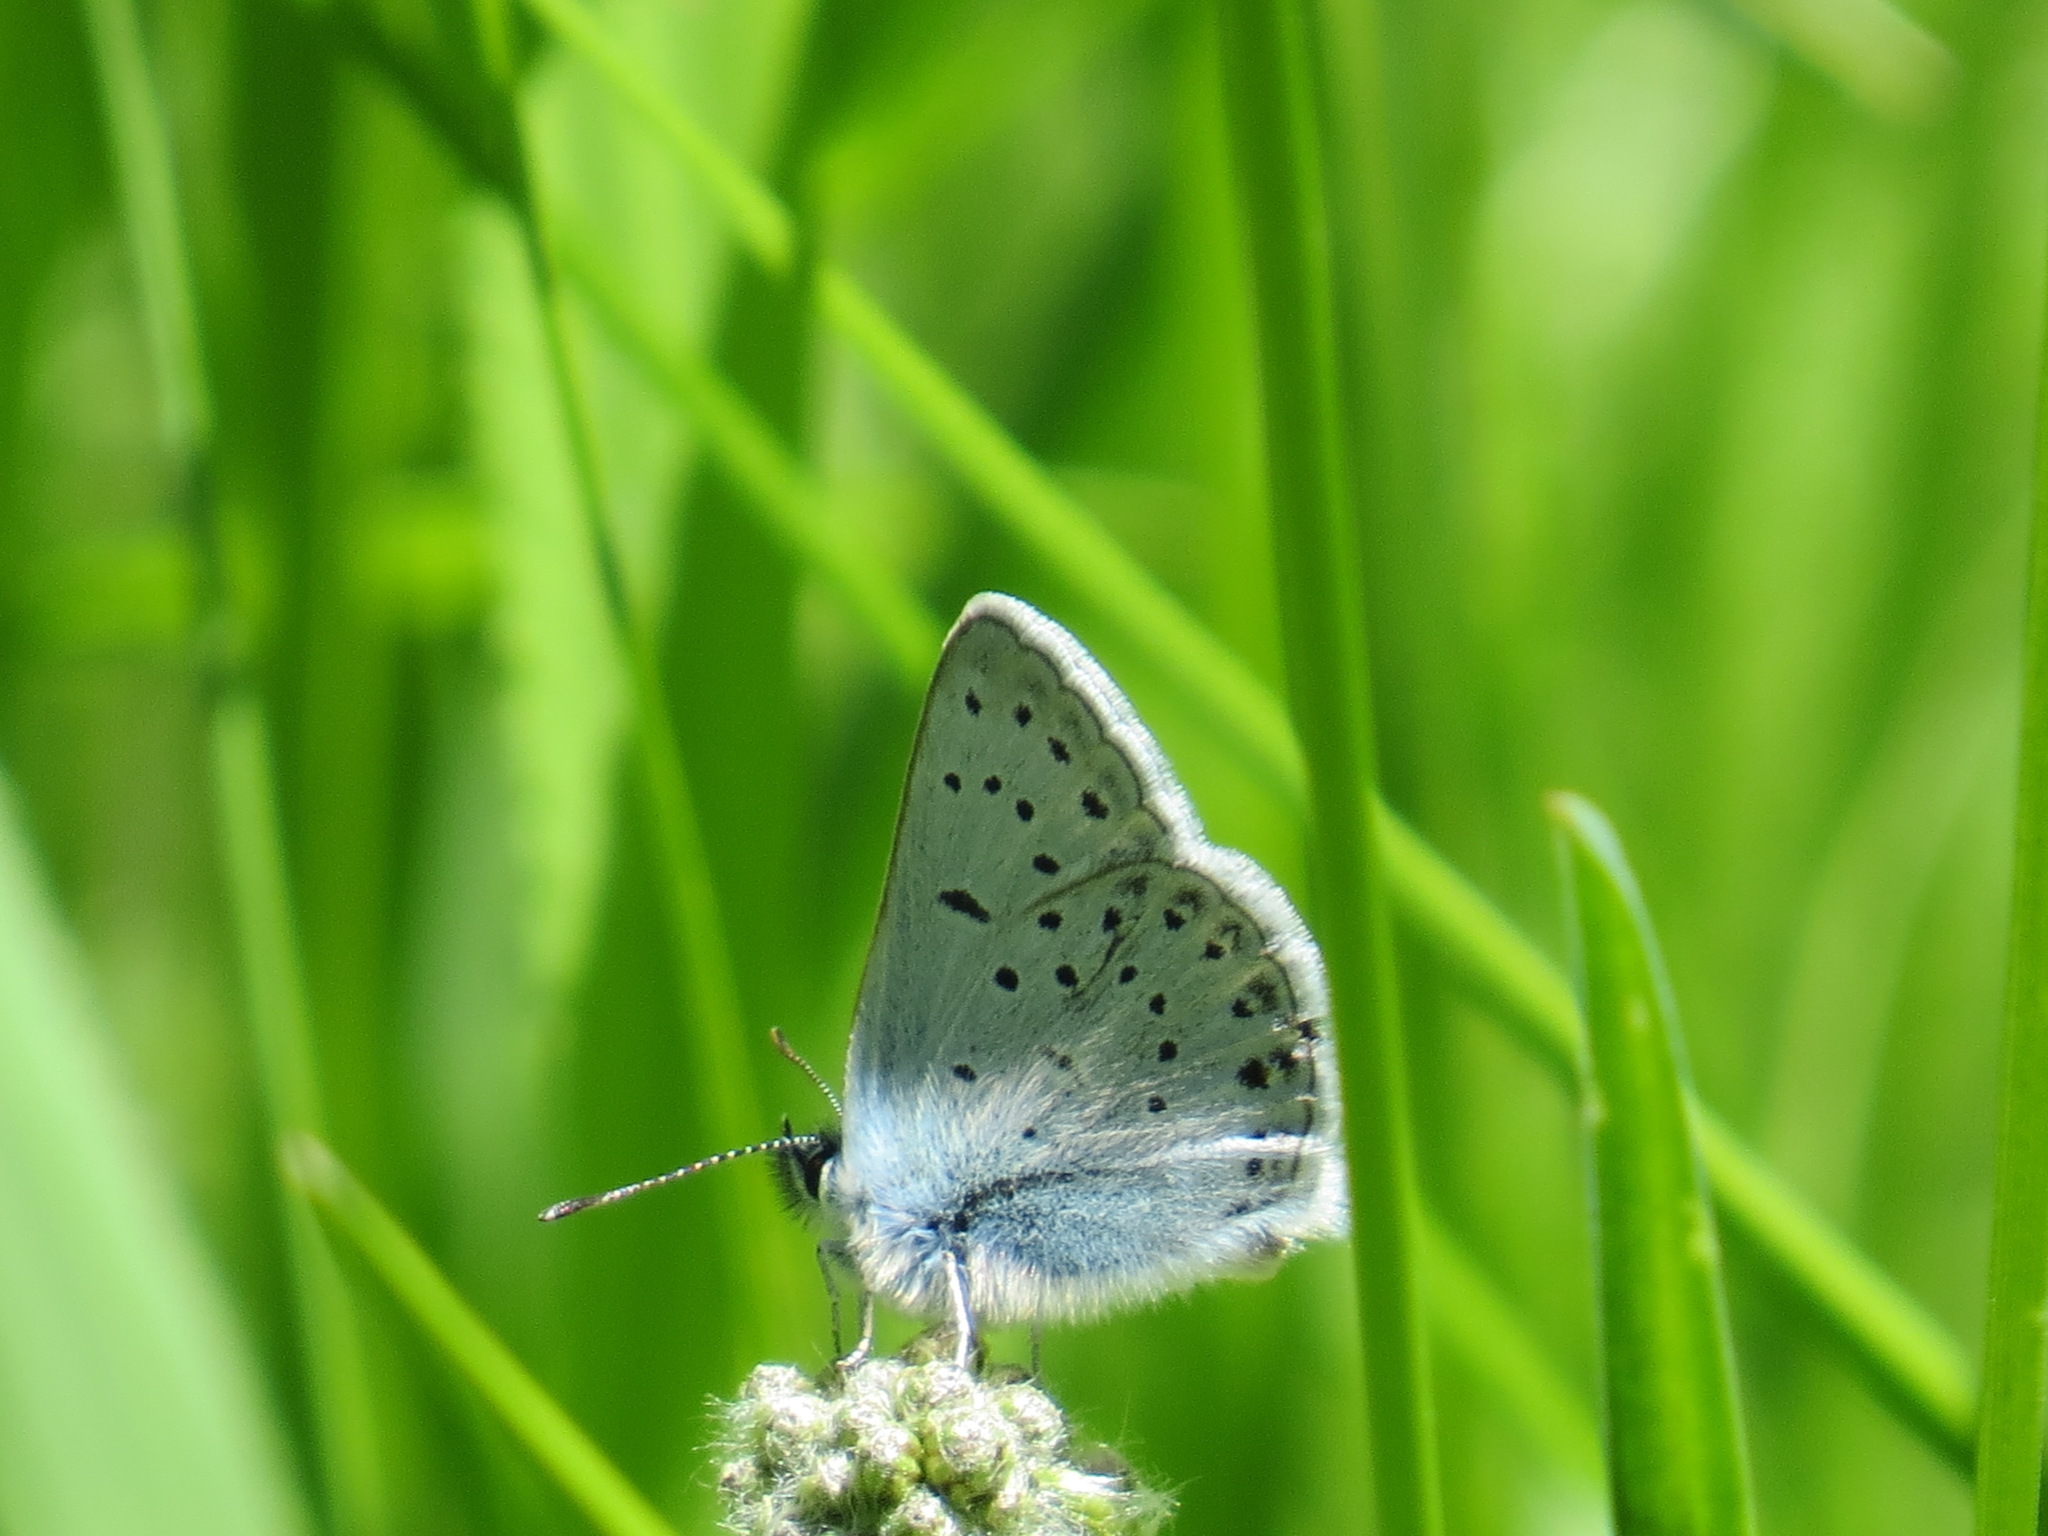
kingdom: Animalia
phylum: Arthropoda
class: Insecta
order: Lepidoptera
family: Lycaenidae
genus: Icaricia
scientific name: Icaricia saepiolus
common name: Greenish blue
